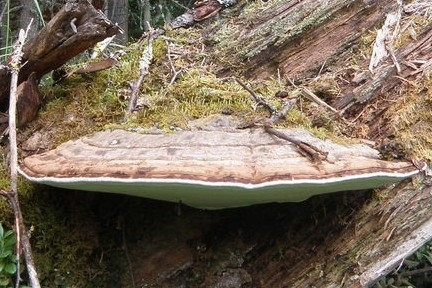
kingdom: Fungi
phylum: Basidiomycota
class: Agaricomycetes
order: Polyporales
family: Polyporaceae
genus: Ganoderma
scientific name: Ganoderma applanatum
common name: Artist's bracket
